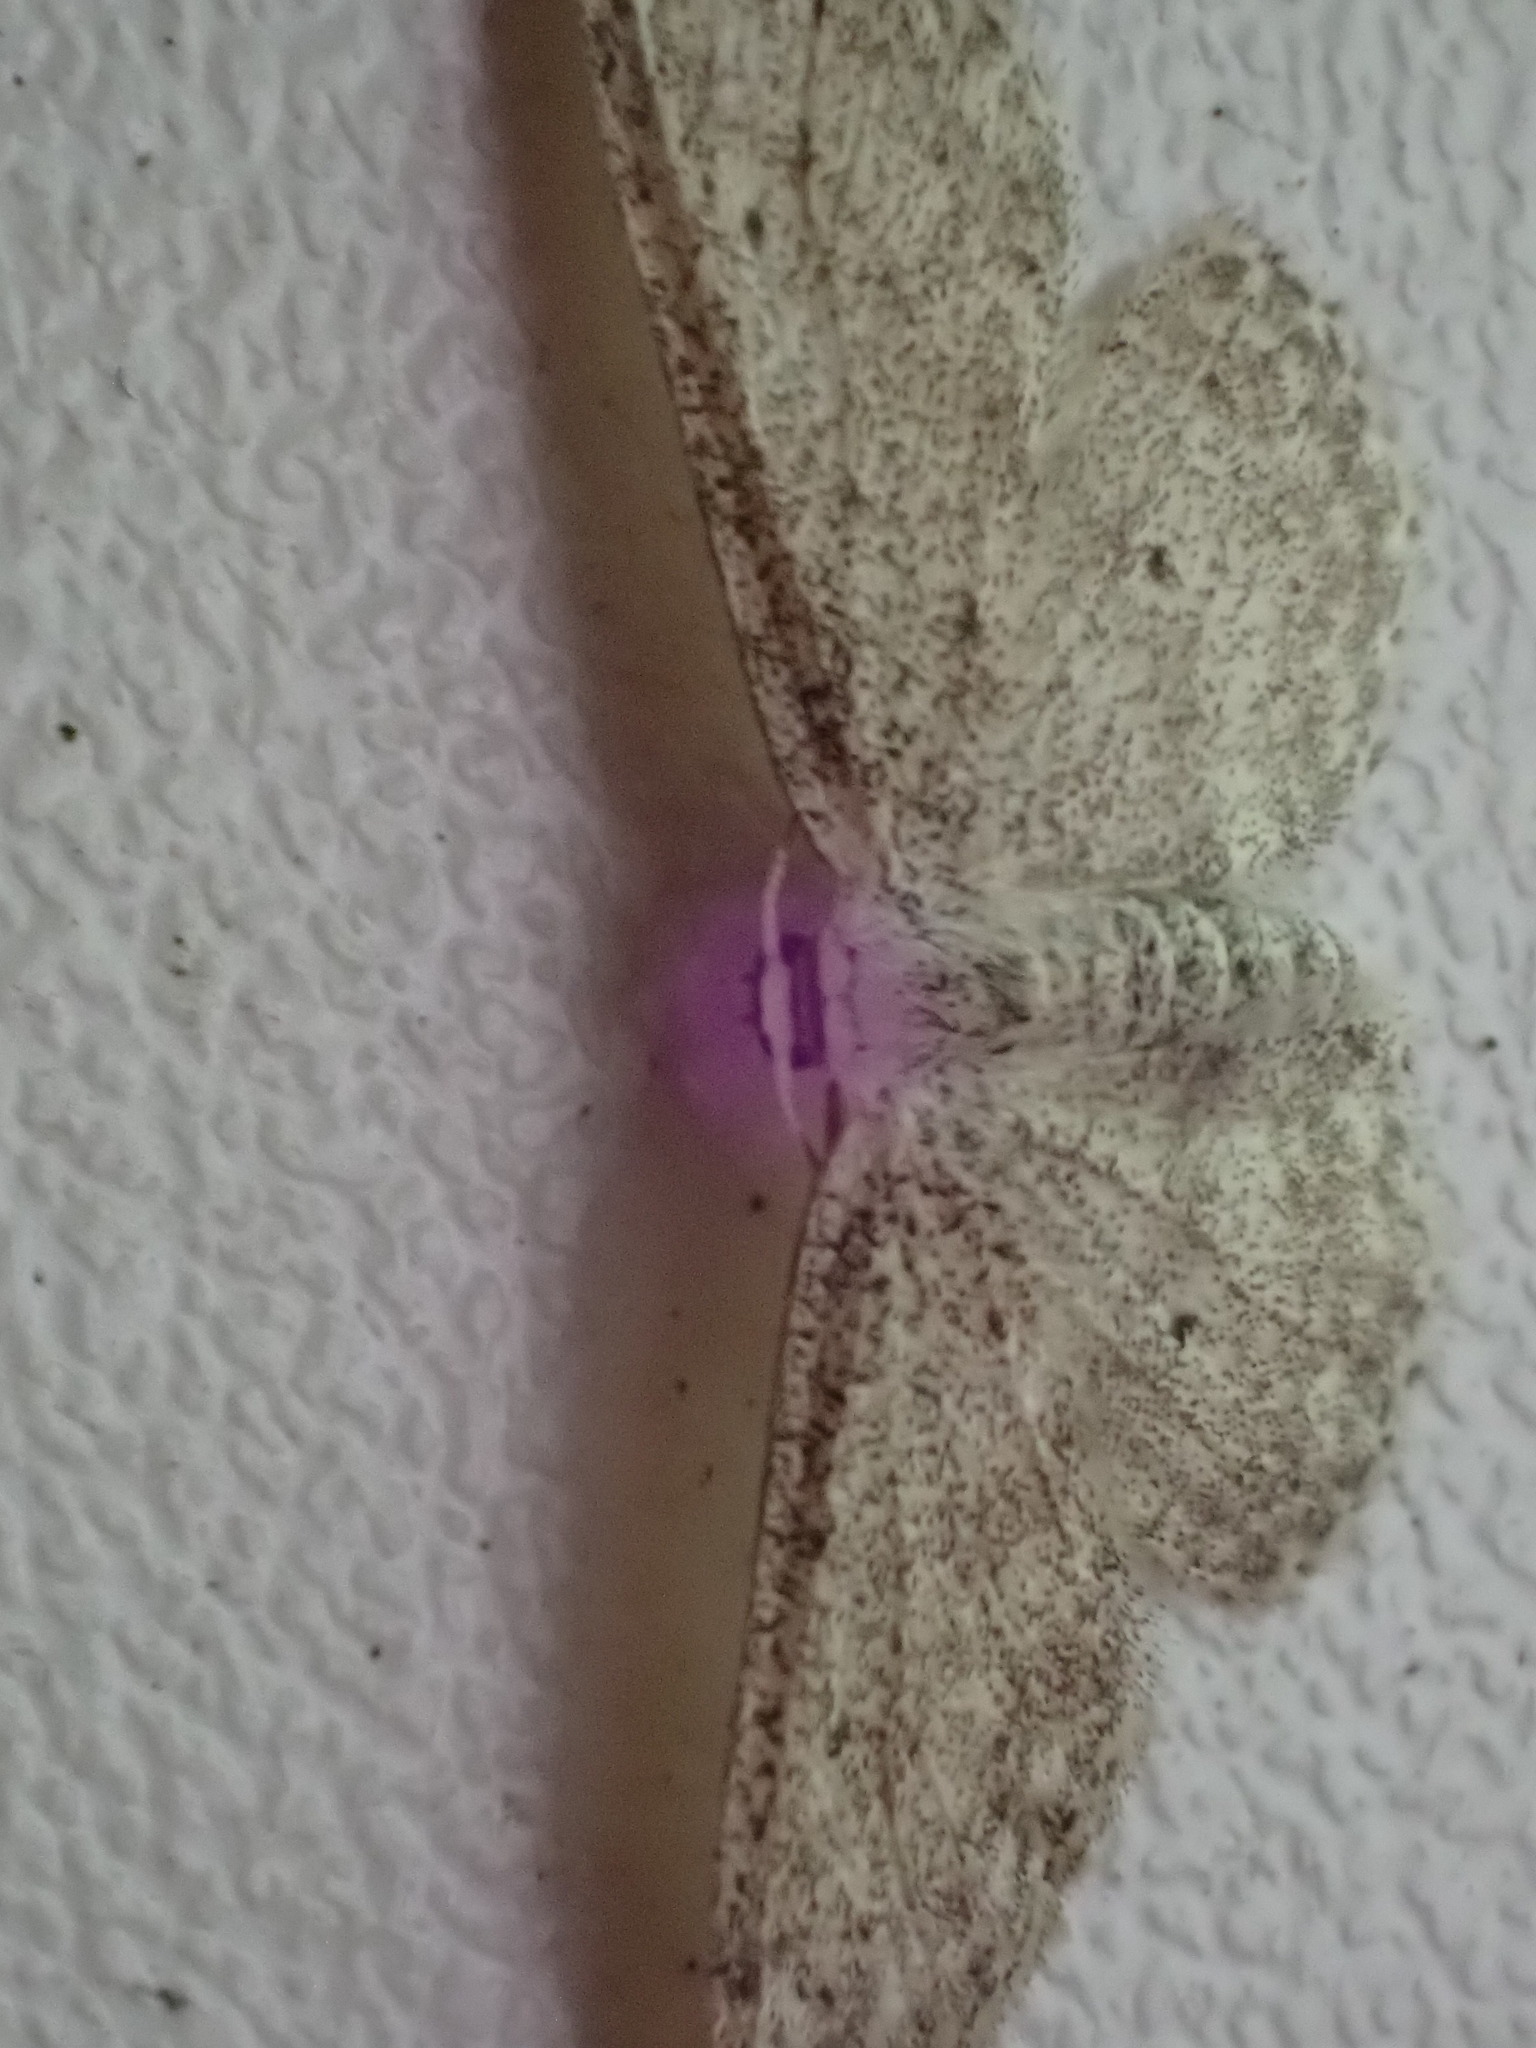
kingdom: Animalia
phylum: Arthropoda
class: Insecta
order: Lepidoptera
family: Geometridae
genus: Idaea
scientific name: Idaea seriata
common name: Small dusty wave
